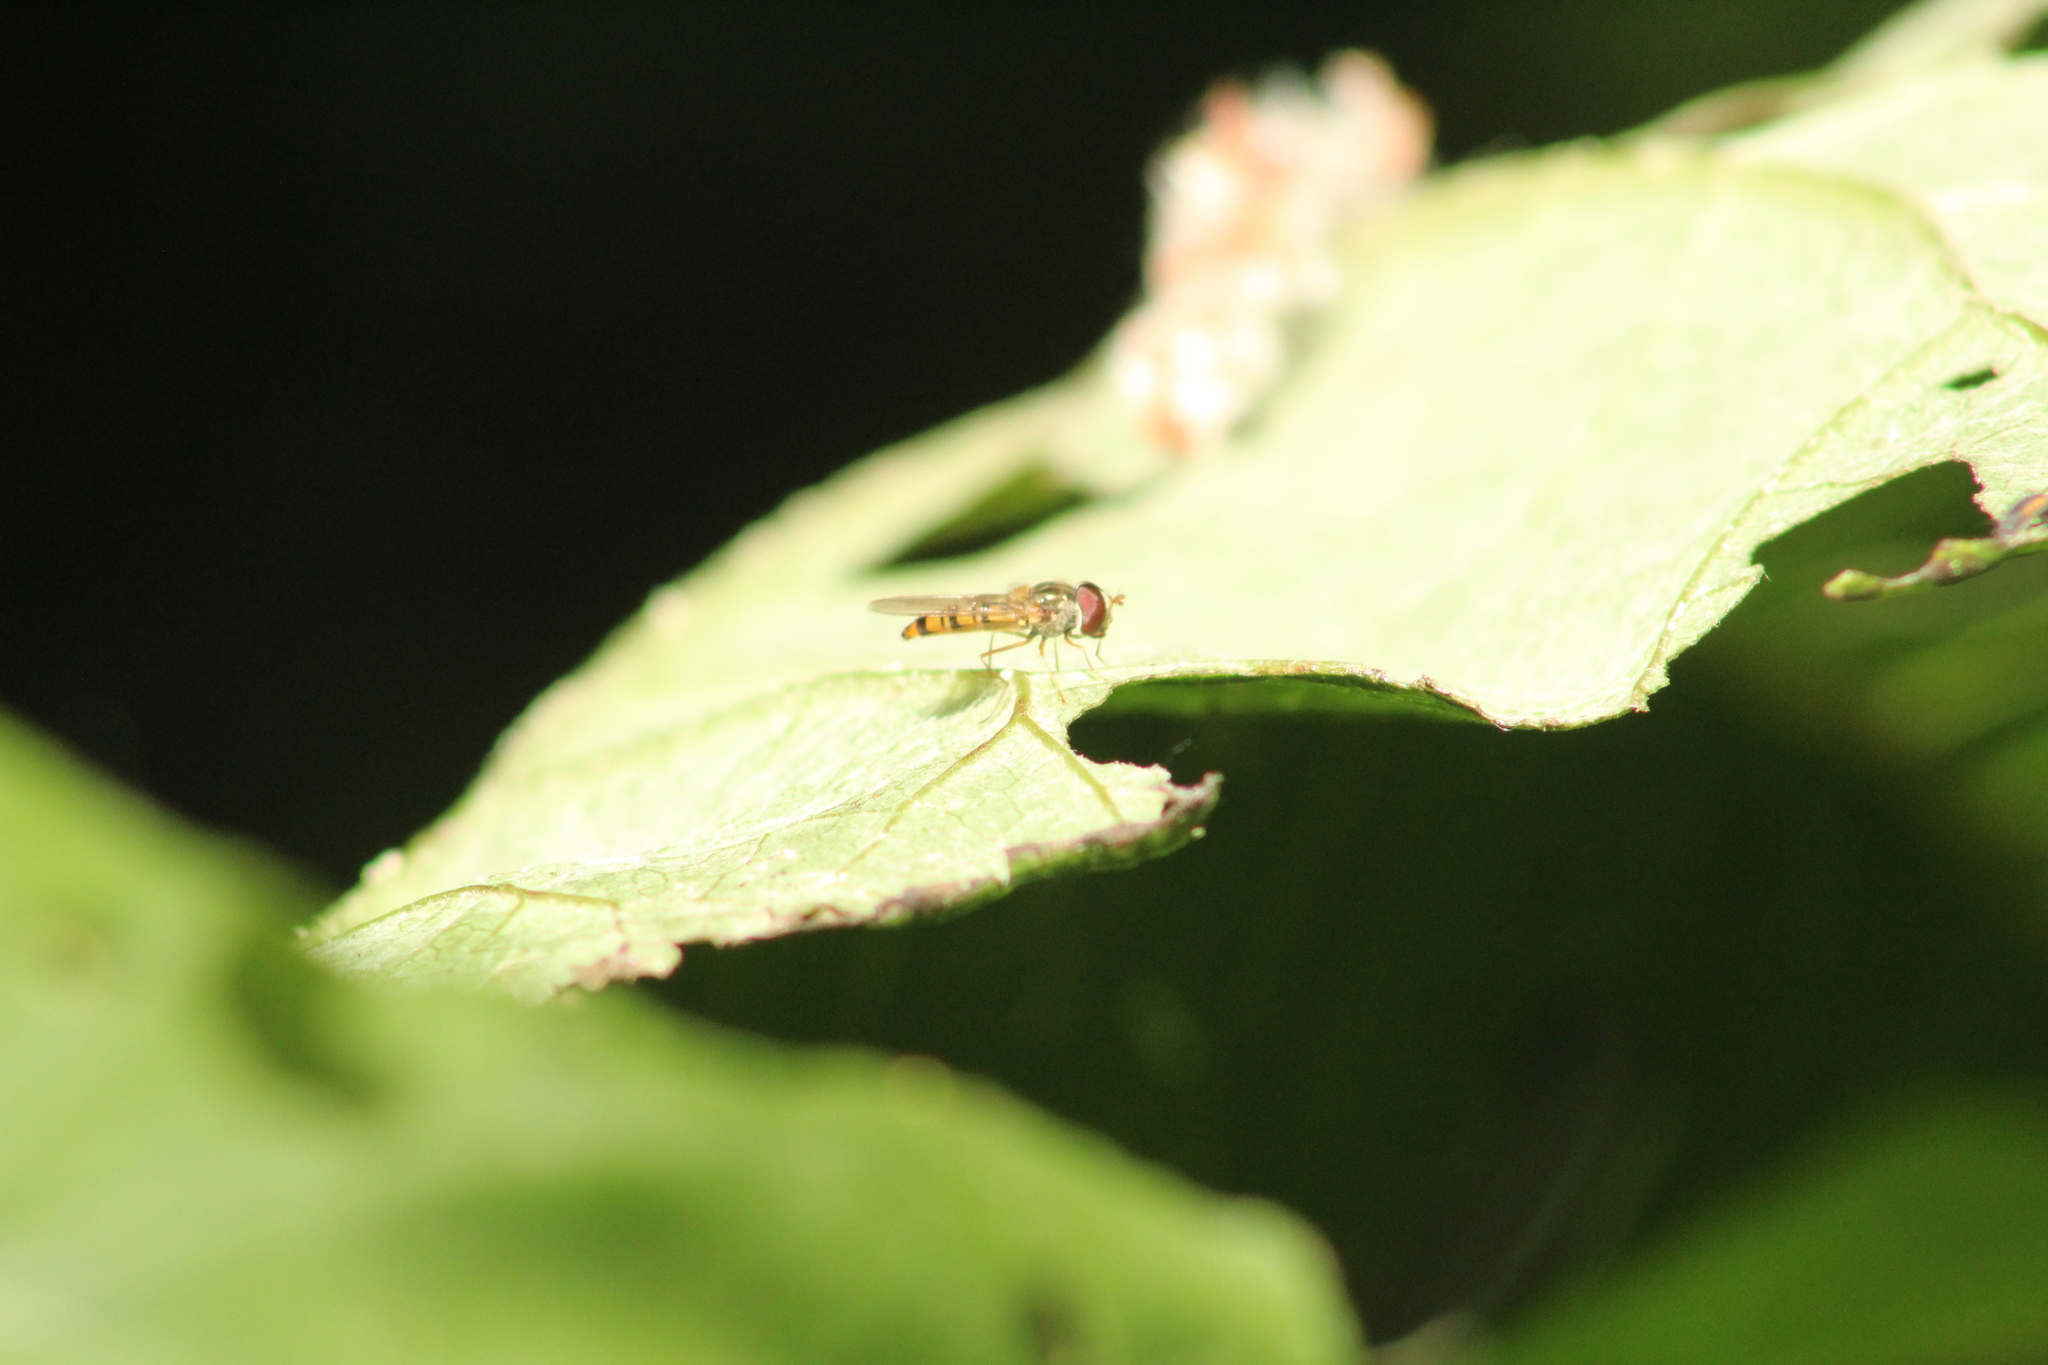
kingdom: Animalia
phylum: Arthropoda
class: Insecta
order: Diptera
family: Syrphidae
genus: Episyrphus
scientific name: Episyrphus balteatus
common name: Marmalade hoverfly
